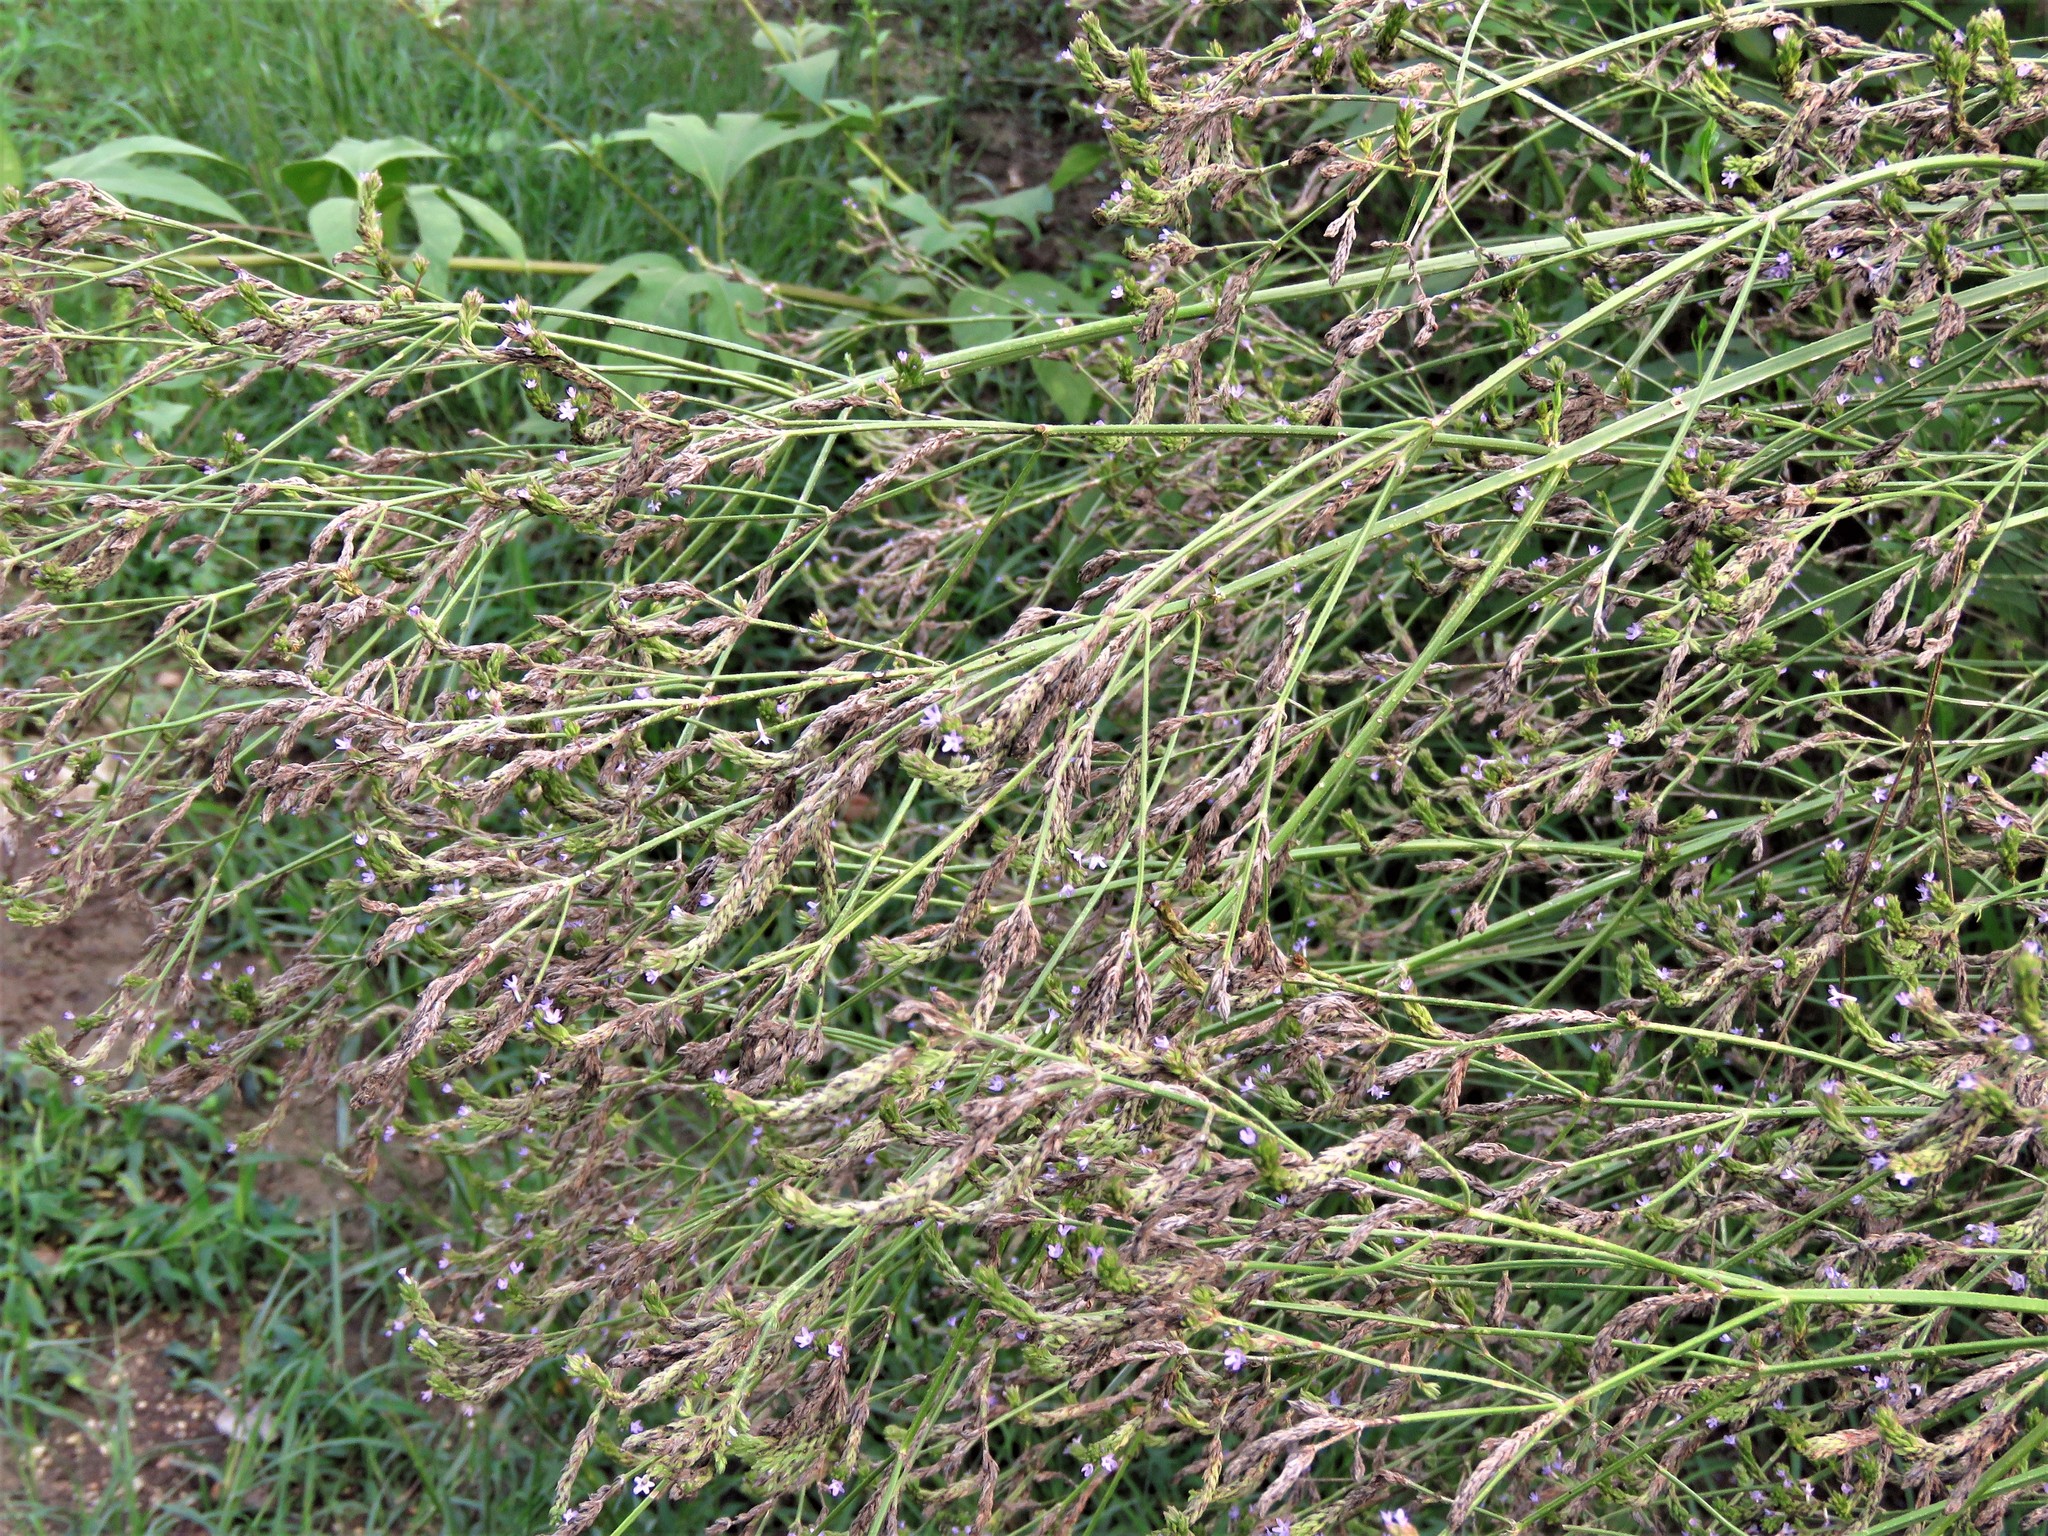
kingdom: Plantae
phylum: Tracheophyta
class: Magnoliopsida
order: Lamiales
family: Verbenaceae
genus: Verbena
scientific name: Verbena brasiliensis
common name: Brazilian vervain
